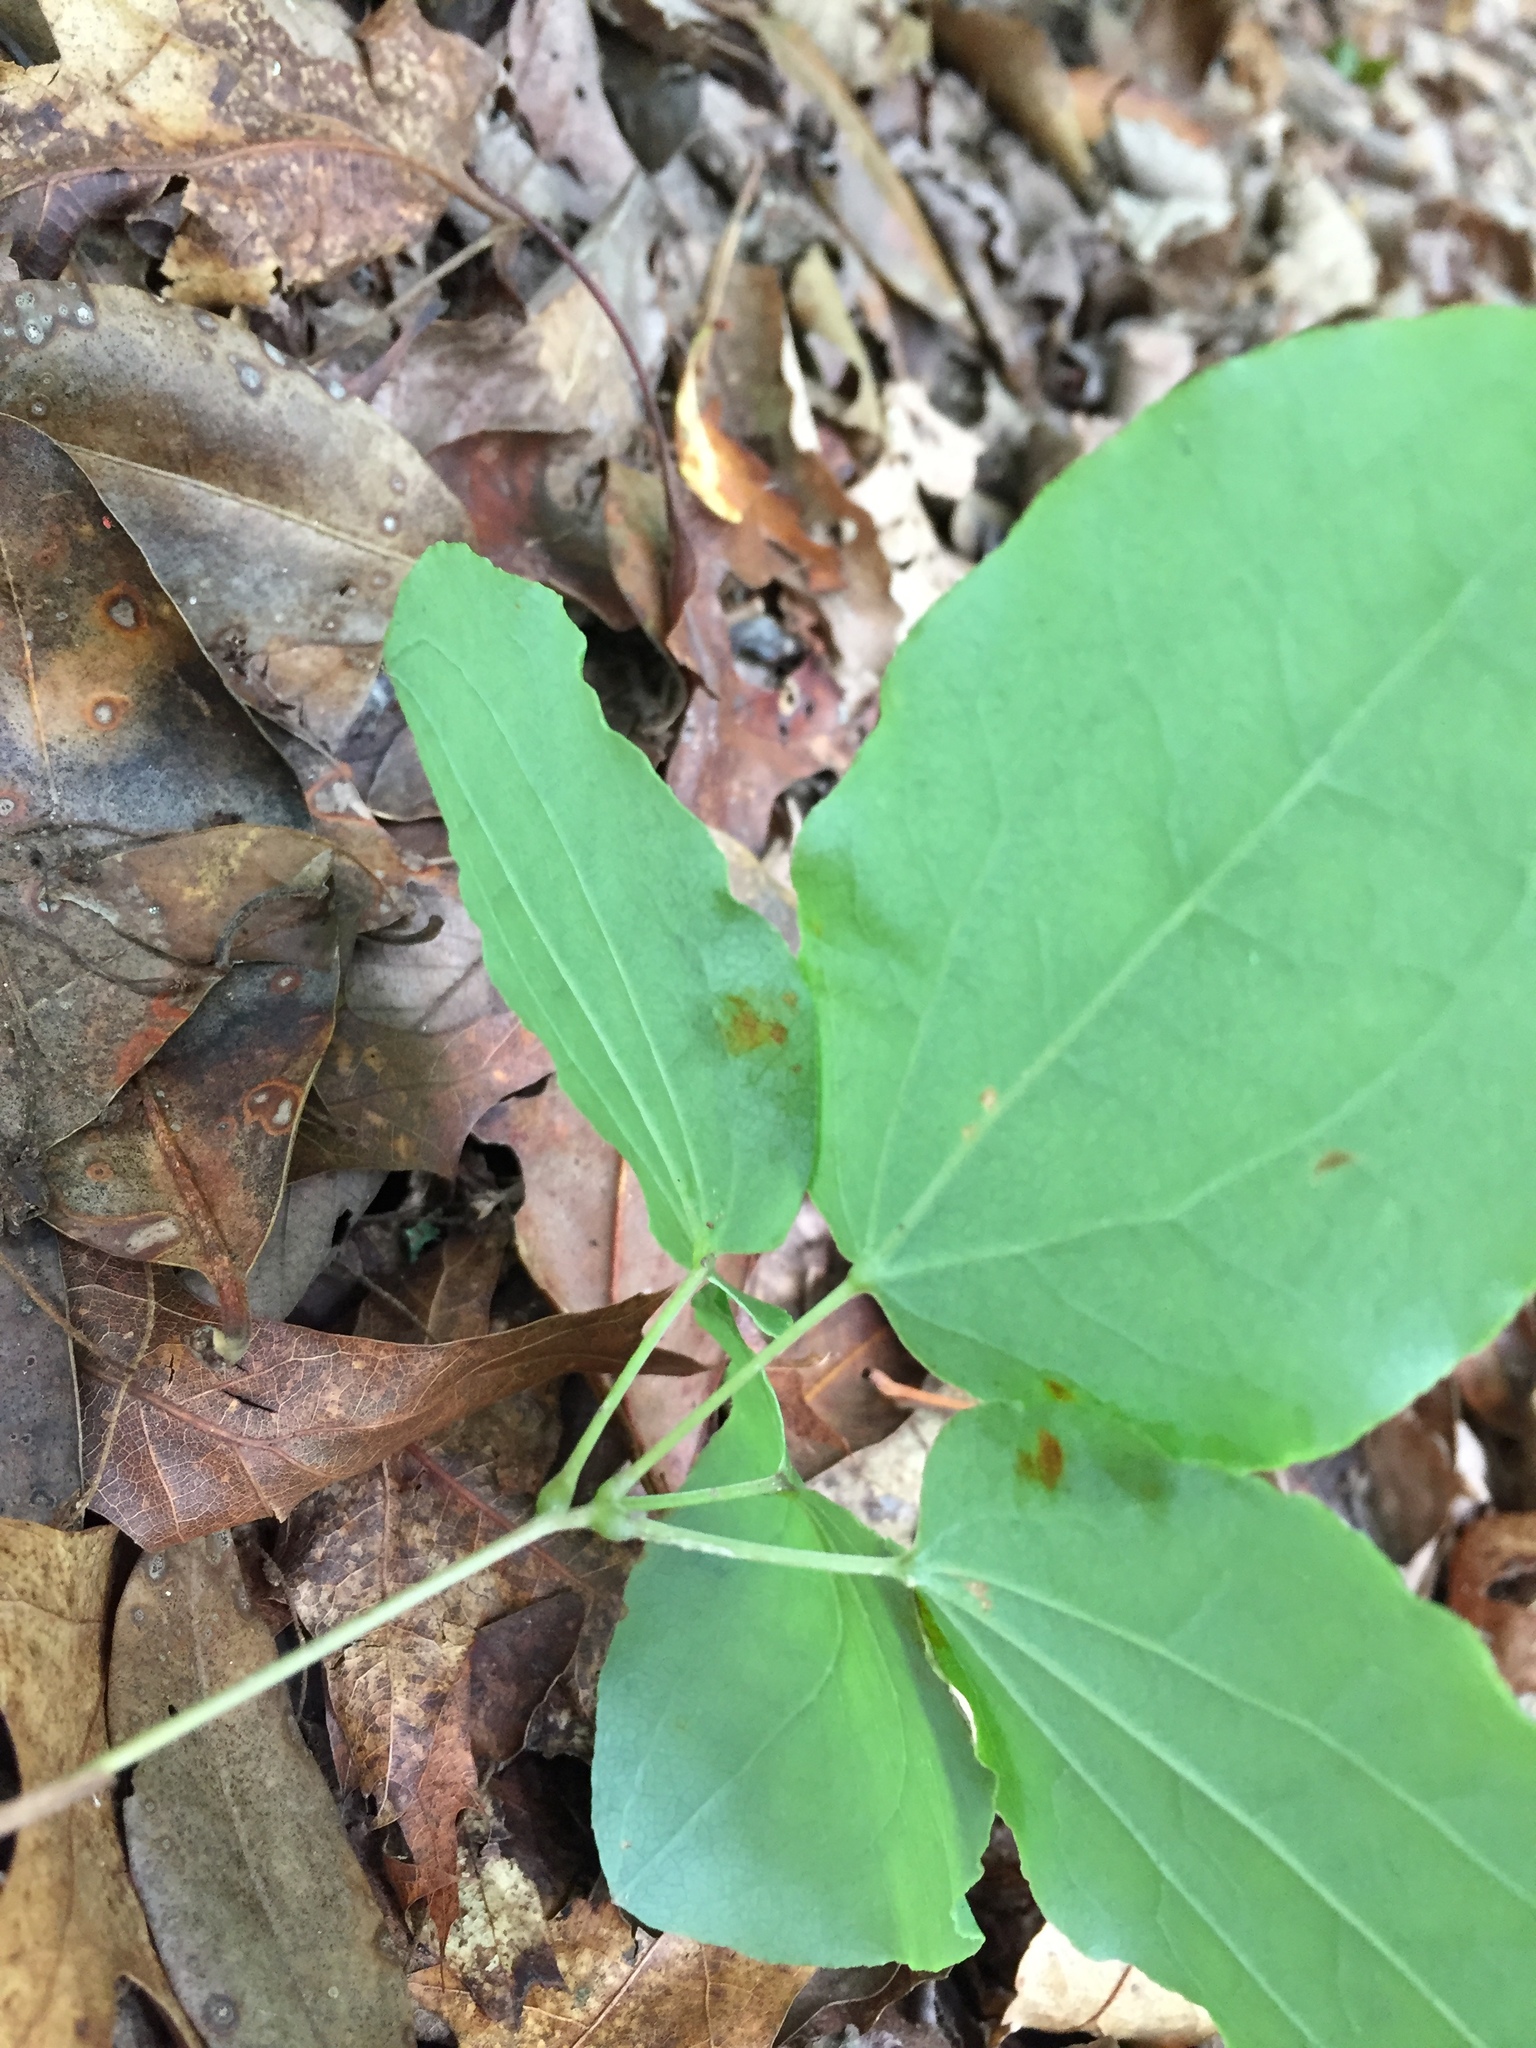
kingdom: Plantae
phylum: Tracheophyta
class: Liliopsida
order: Liliales
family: Smilacaceae
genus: Smilax
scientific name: Smilax biltmoreana
